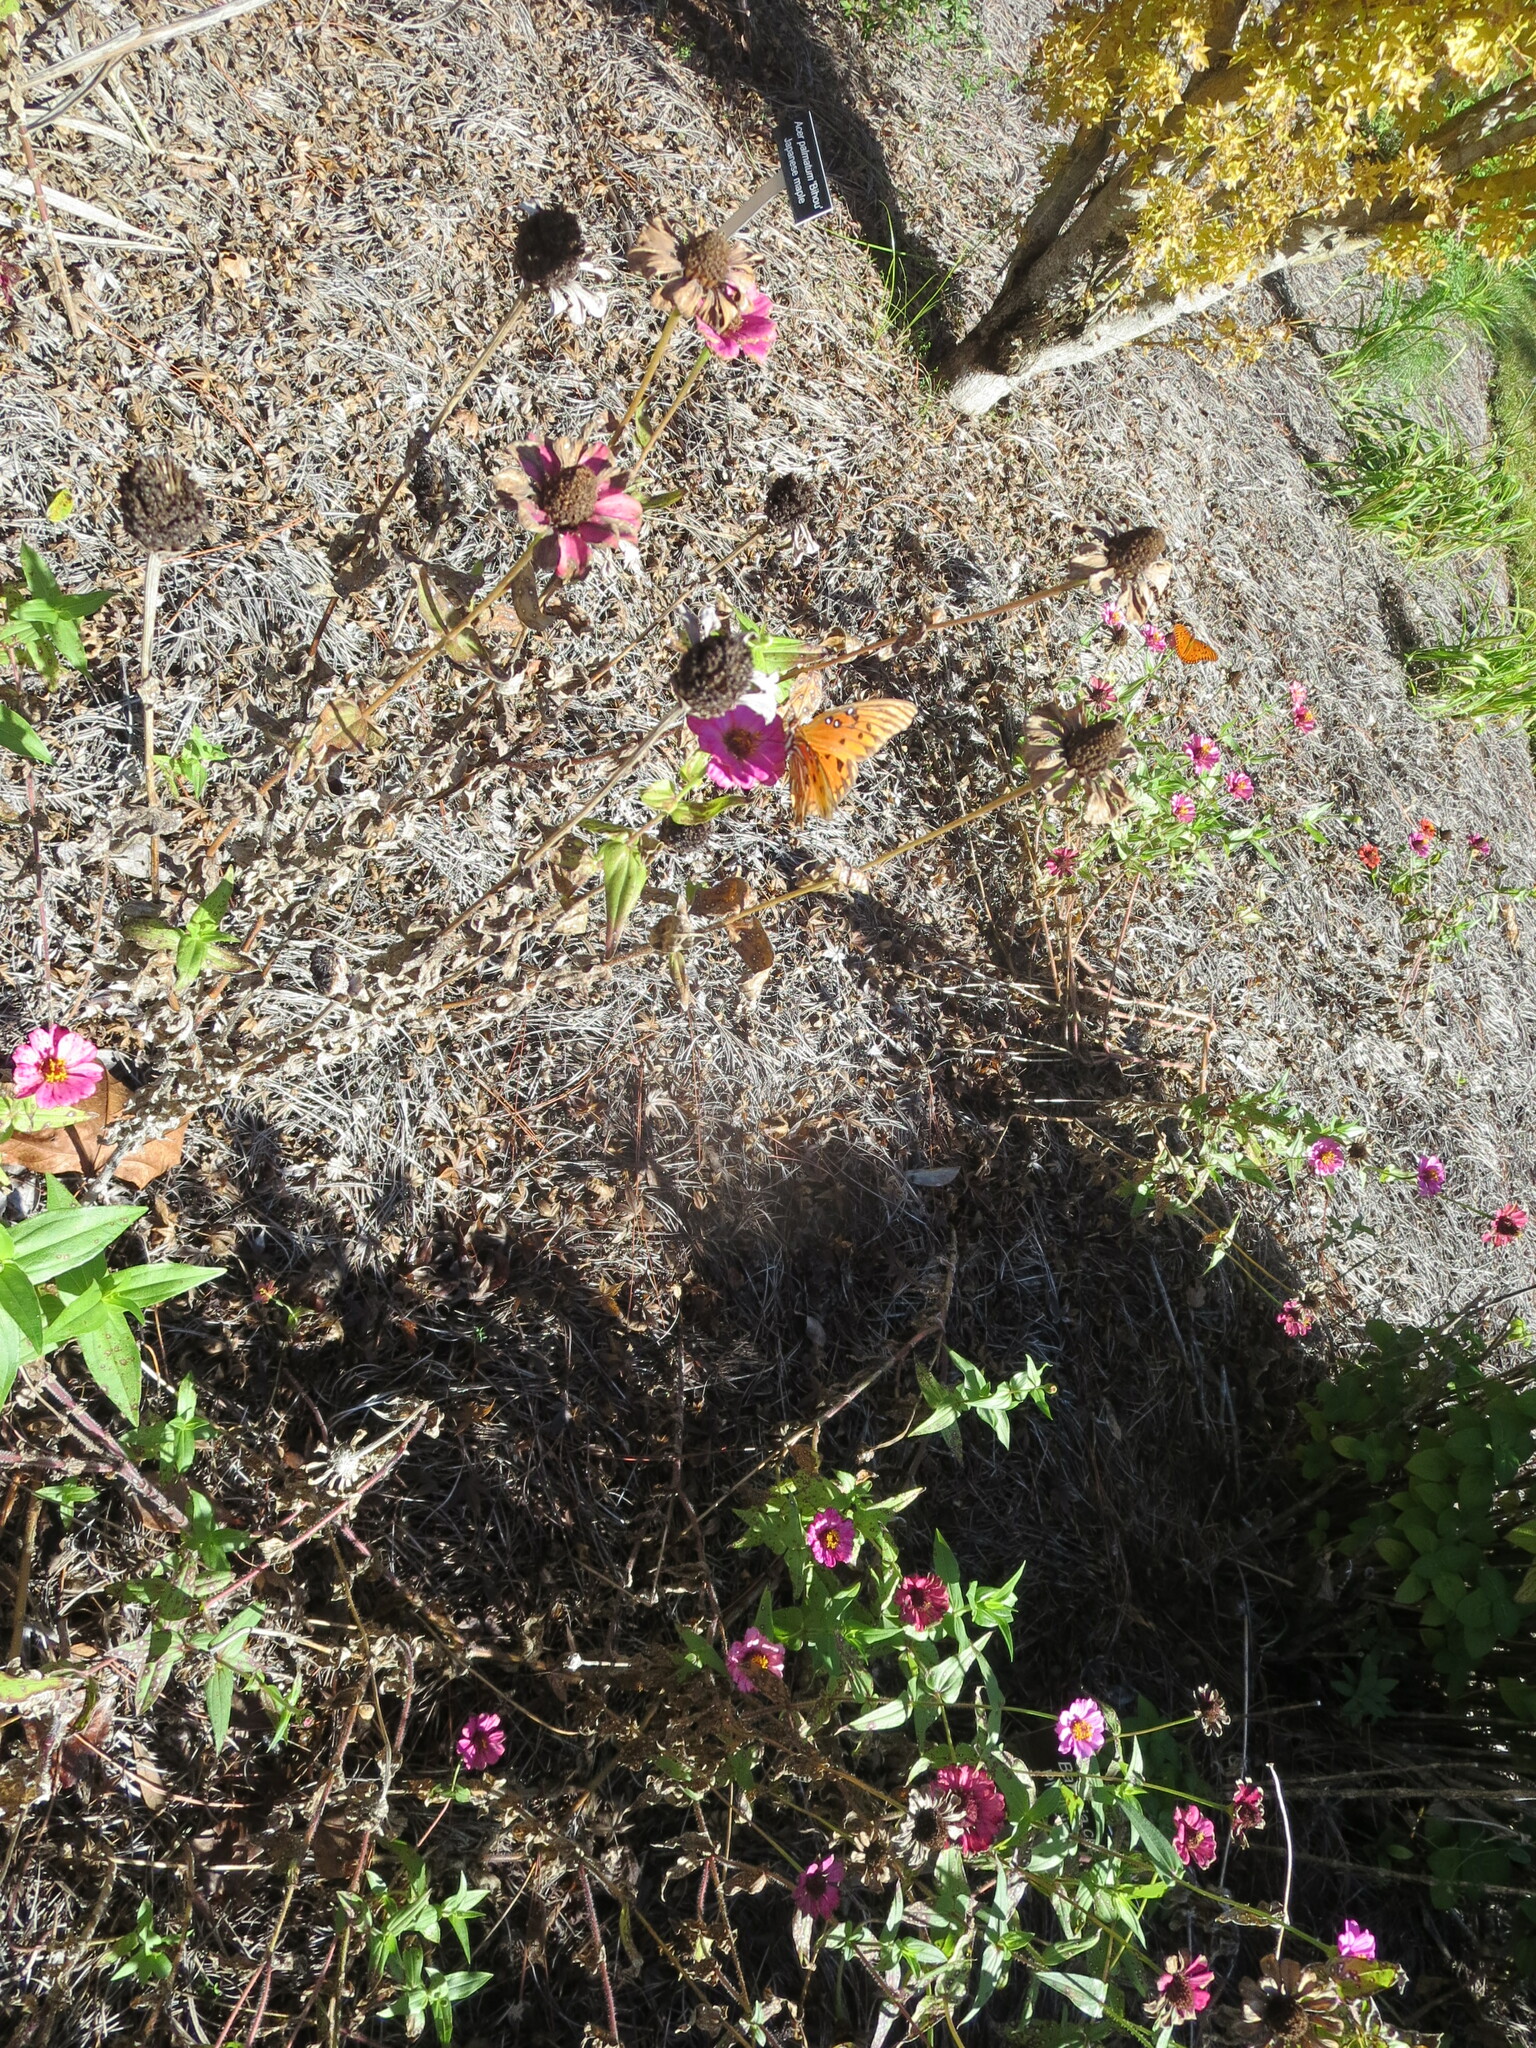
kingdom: Animalia
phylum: Arthropoda
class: Insecta
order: Lepidoptera
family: Nymphalidae
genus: Dione
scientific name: Dione vanillae
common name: Gulf fritillary
